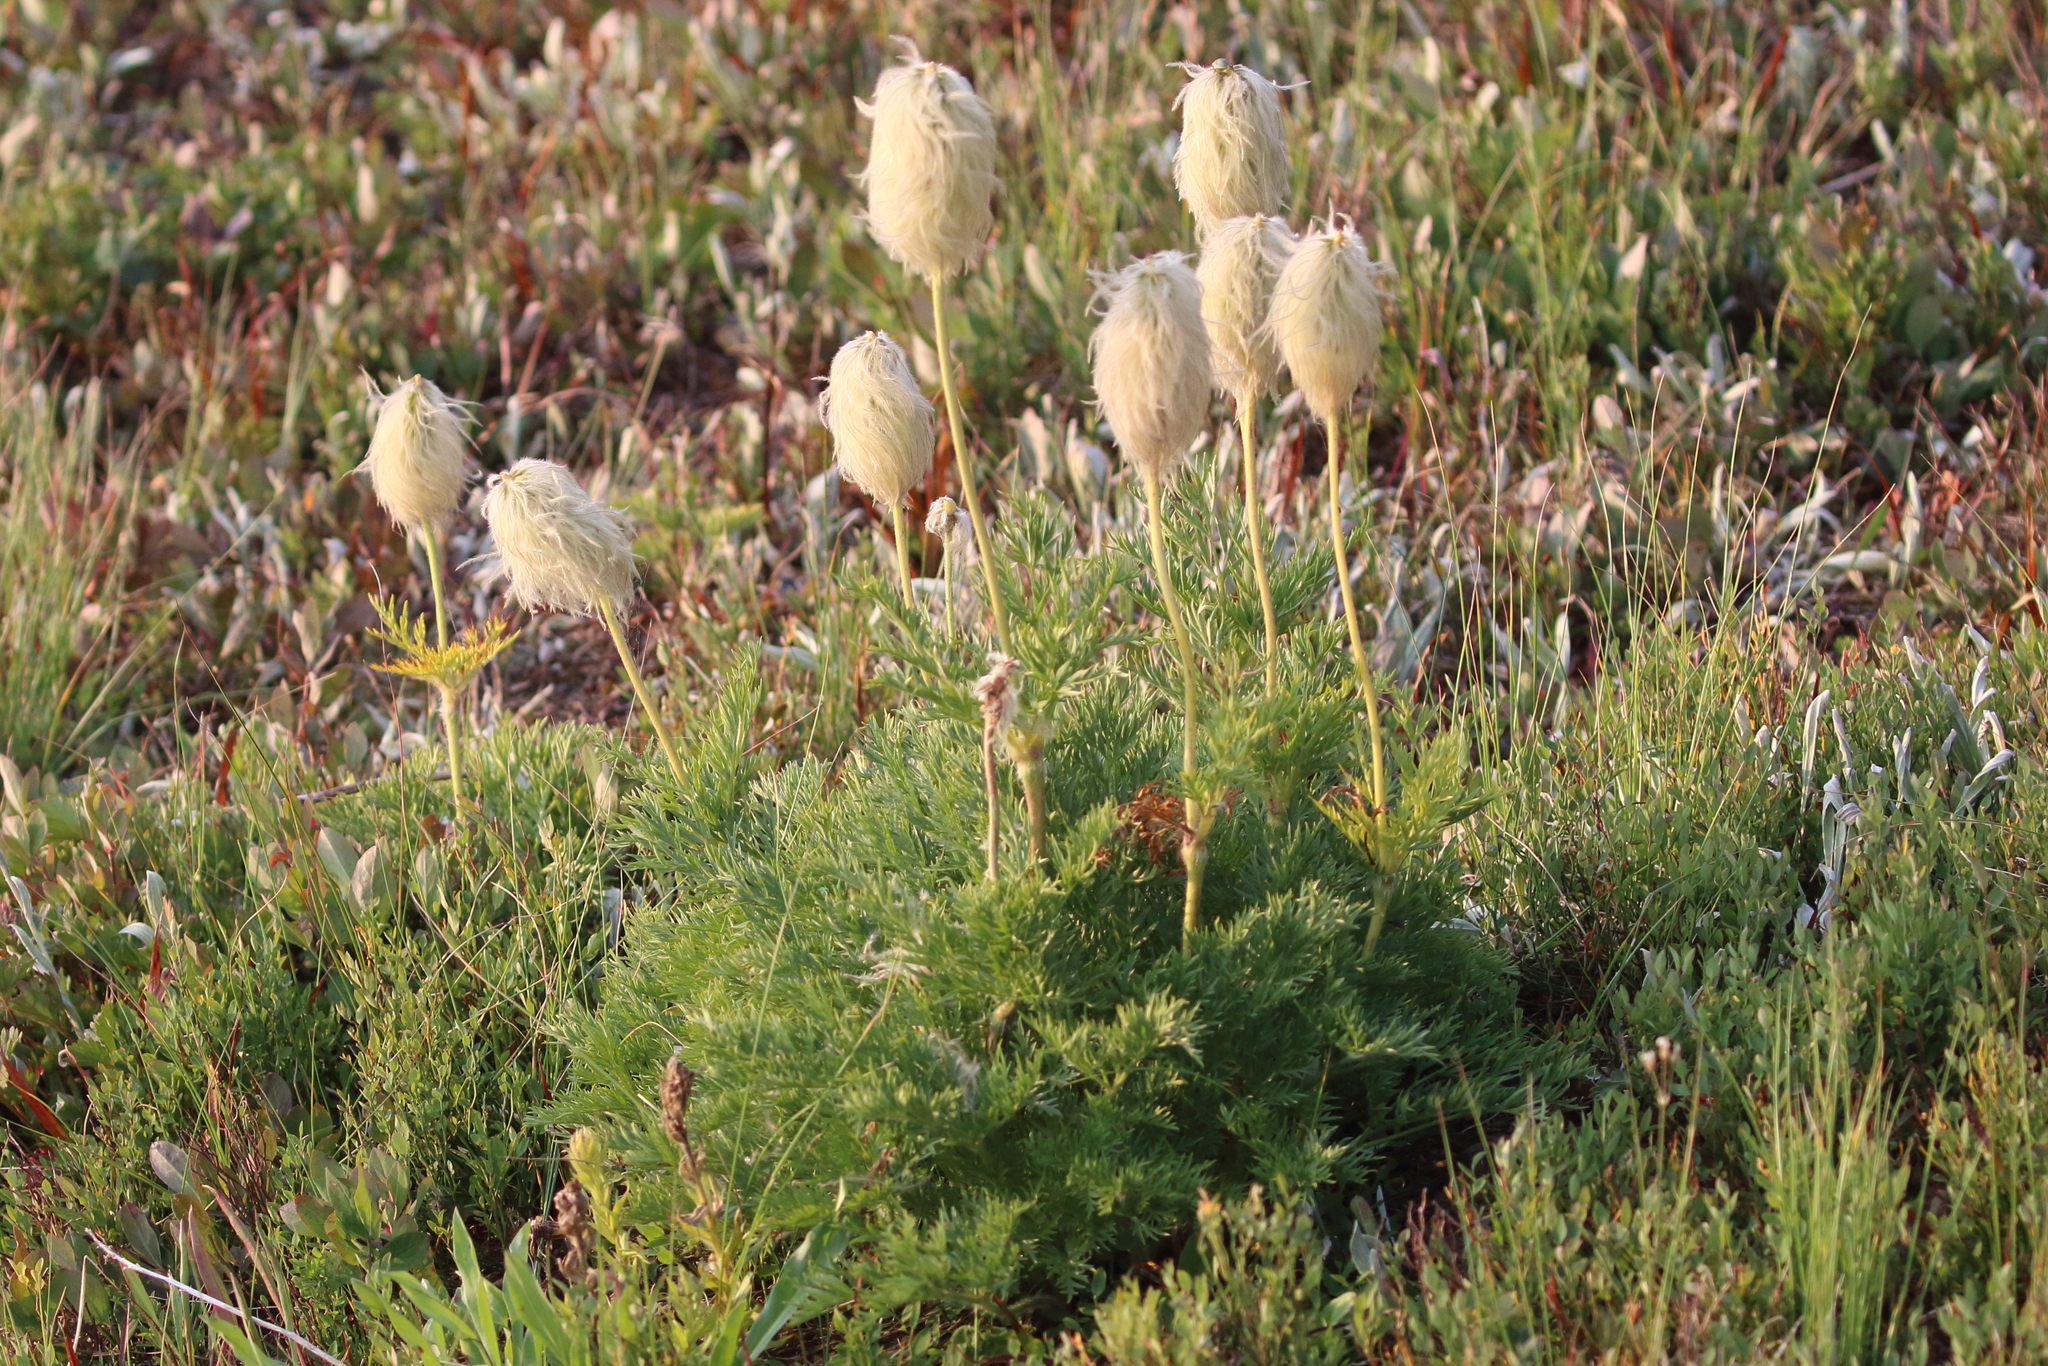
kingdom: Plantae
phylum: Tracheophyta
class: Magnoliopsida
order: Ranunculales
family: Ranunculaceae
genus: Pulsatilla
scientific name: Pulsatilla occidentalis
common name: Mountain pasqueflower
